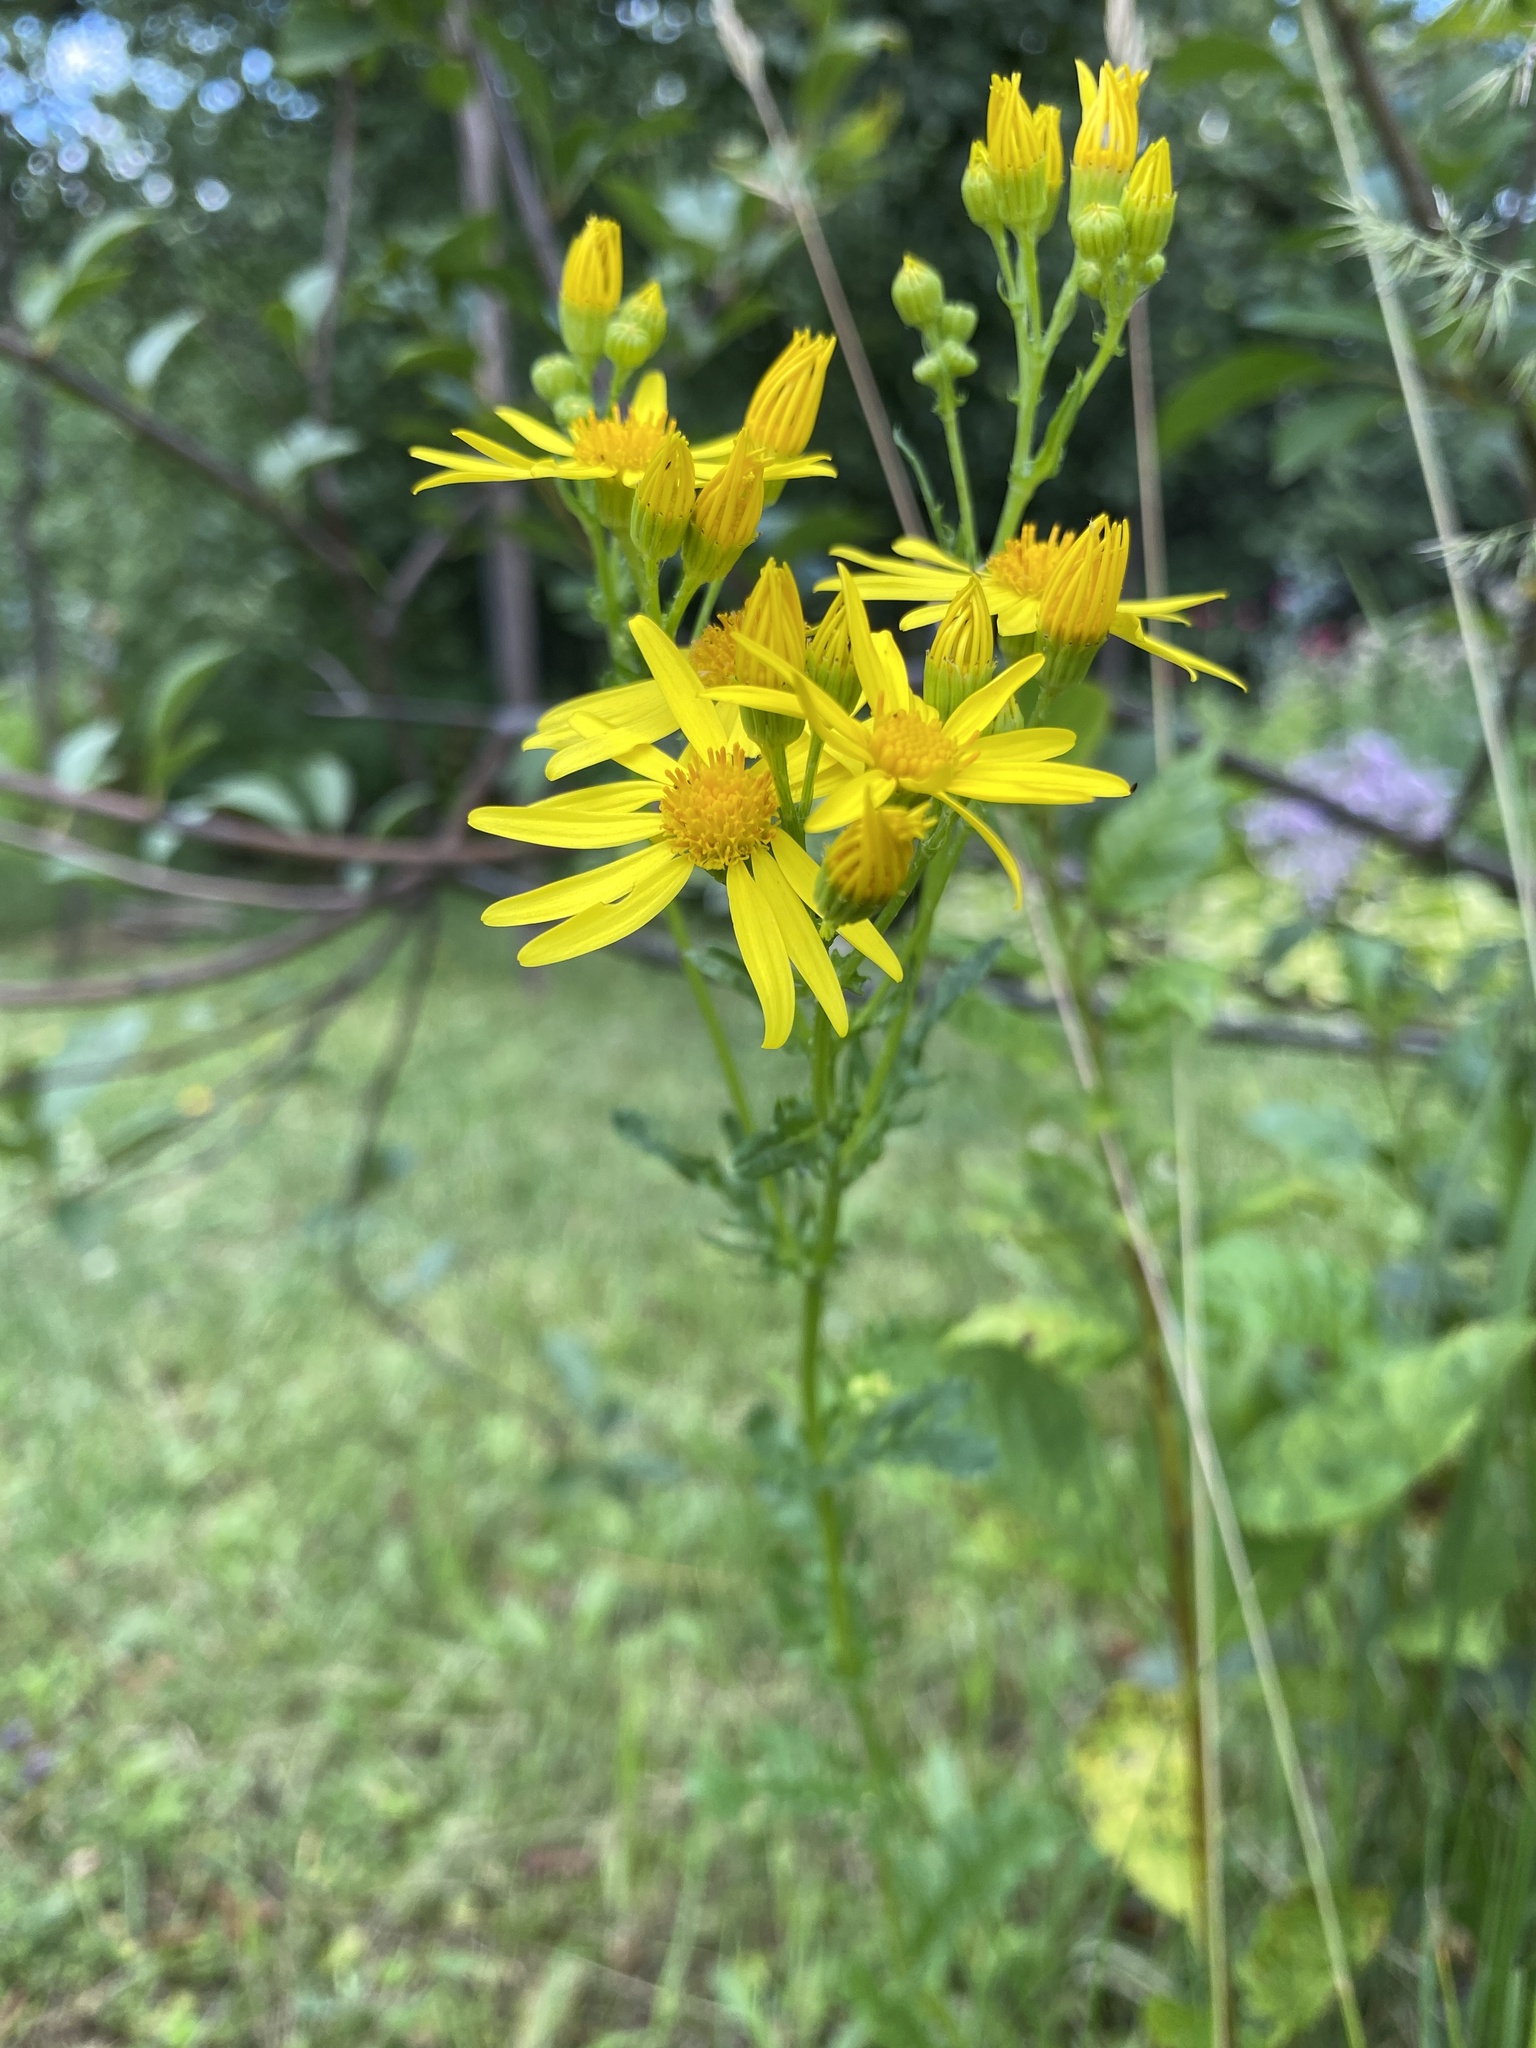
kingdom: Plantae
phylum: Tracheophyta
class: Magnoliopsida
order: Asterales
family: Asteraceae
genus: Jacobaea
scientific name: Jacobaea vulgaris
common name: Stinking willie
